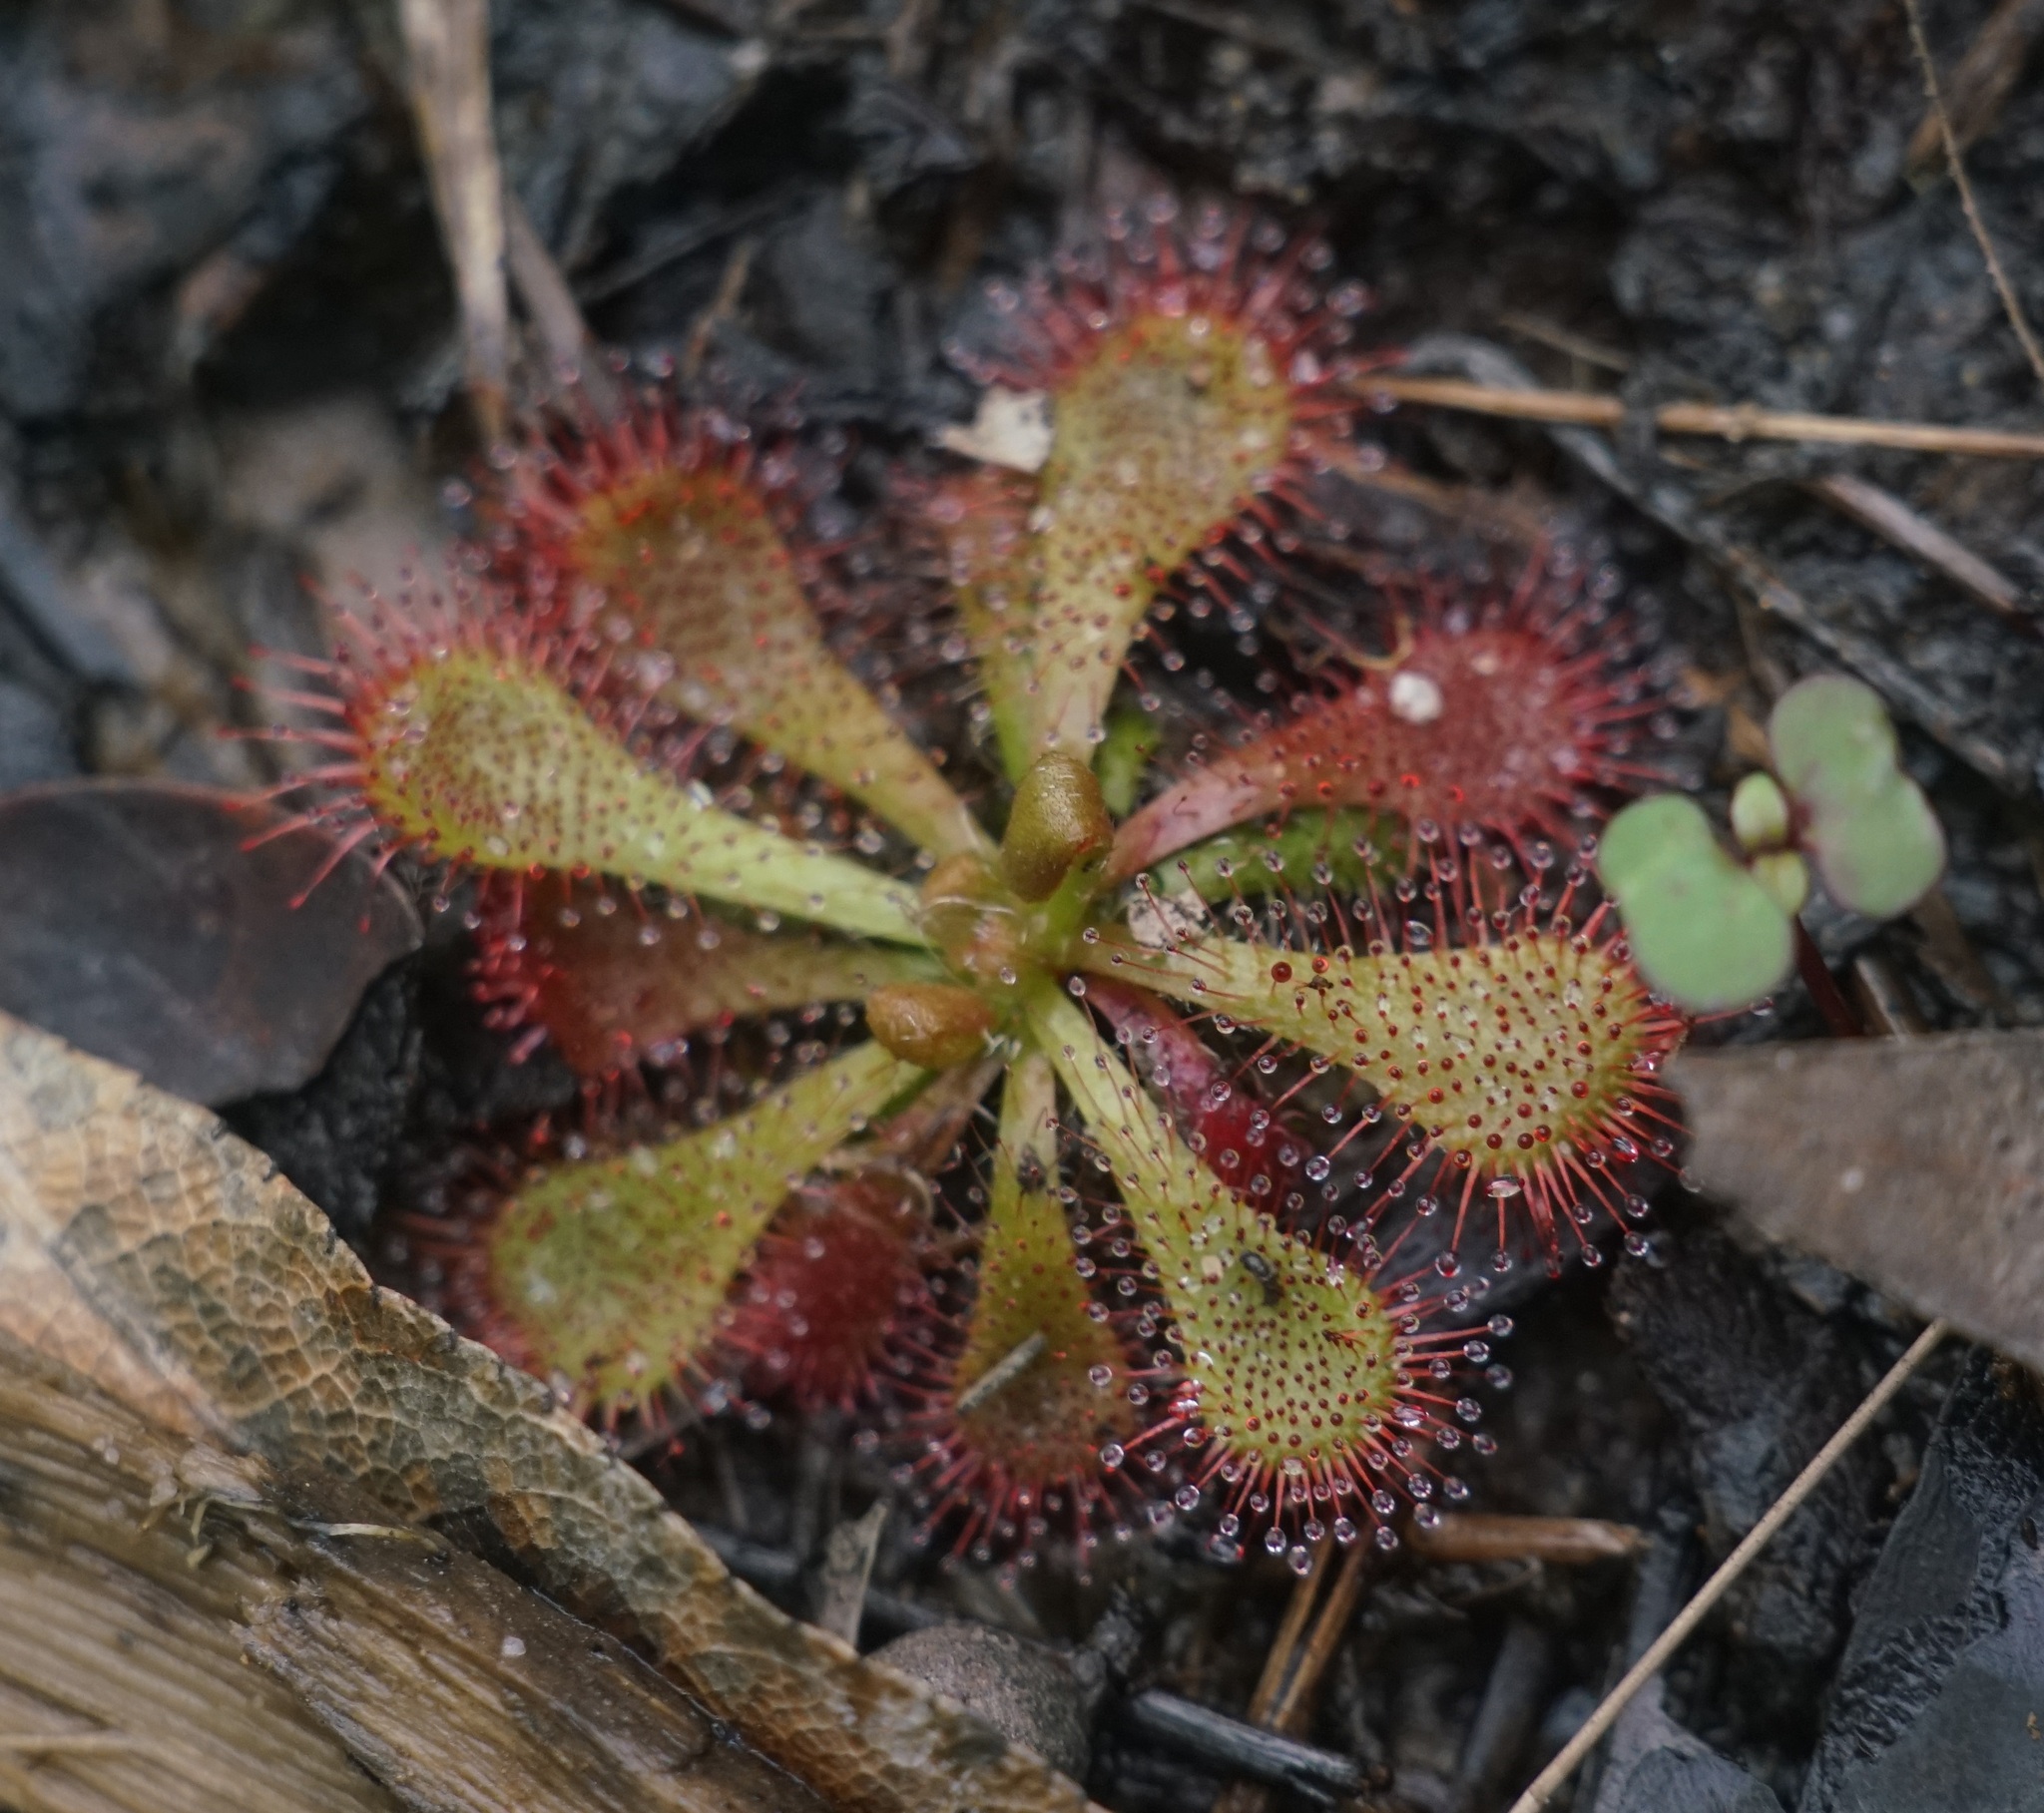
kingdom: Plantae
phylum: Tracheophyta
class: Magnoliopsida
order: Caryophyllales
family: Droseraceae
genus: Drosera
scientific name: Drosera spatulata
